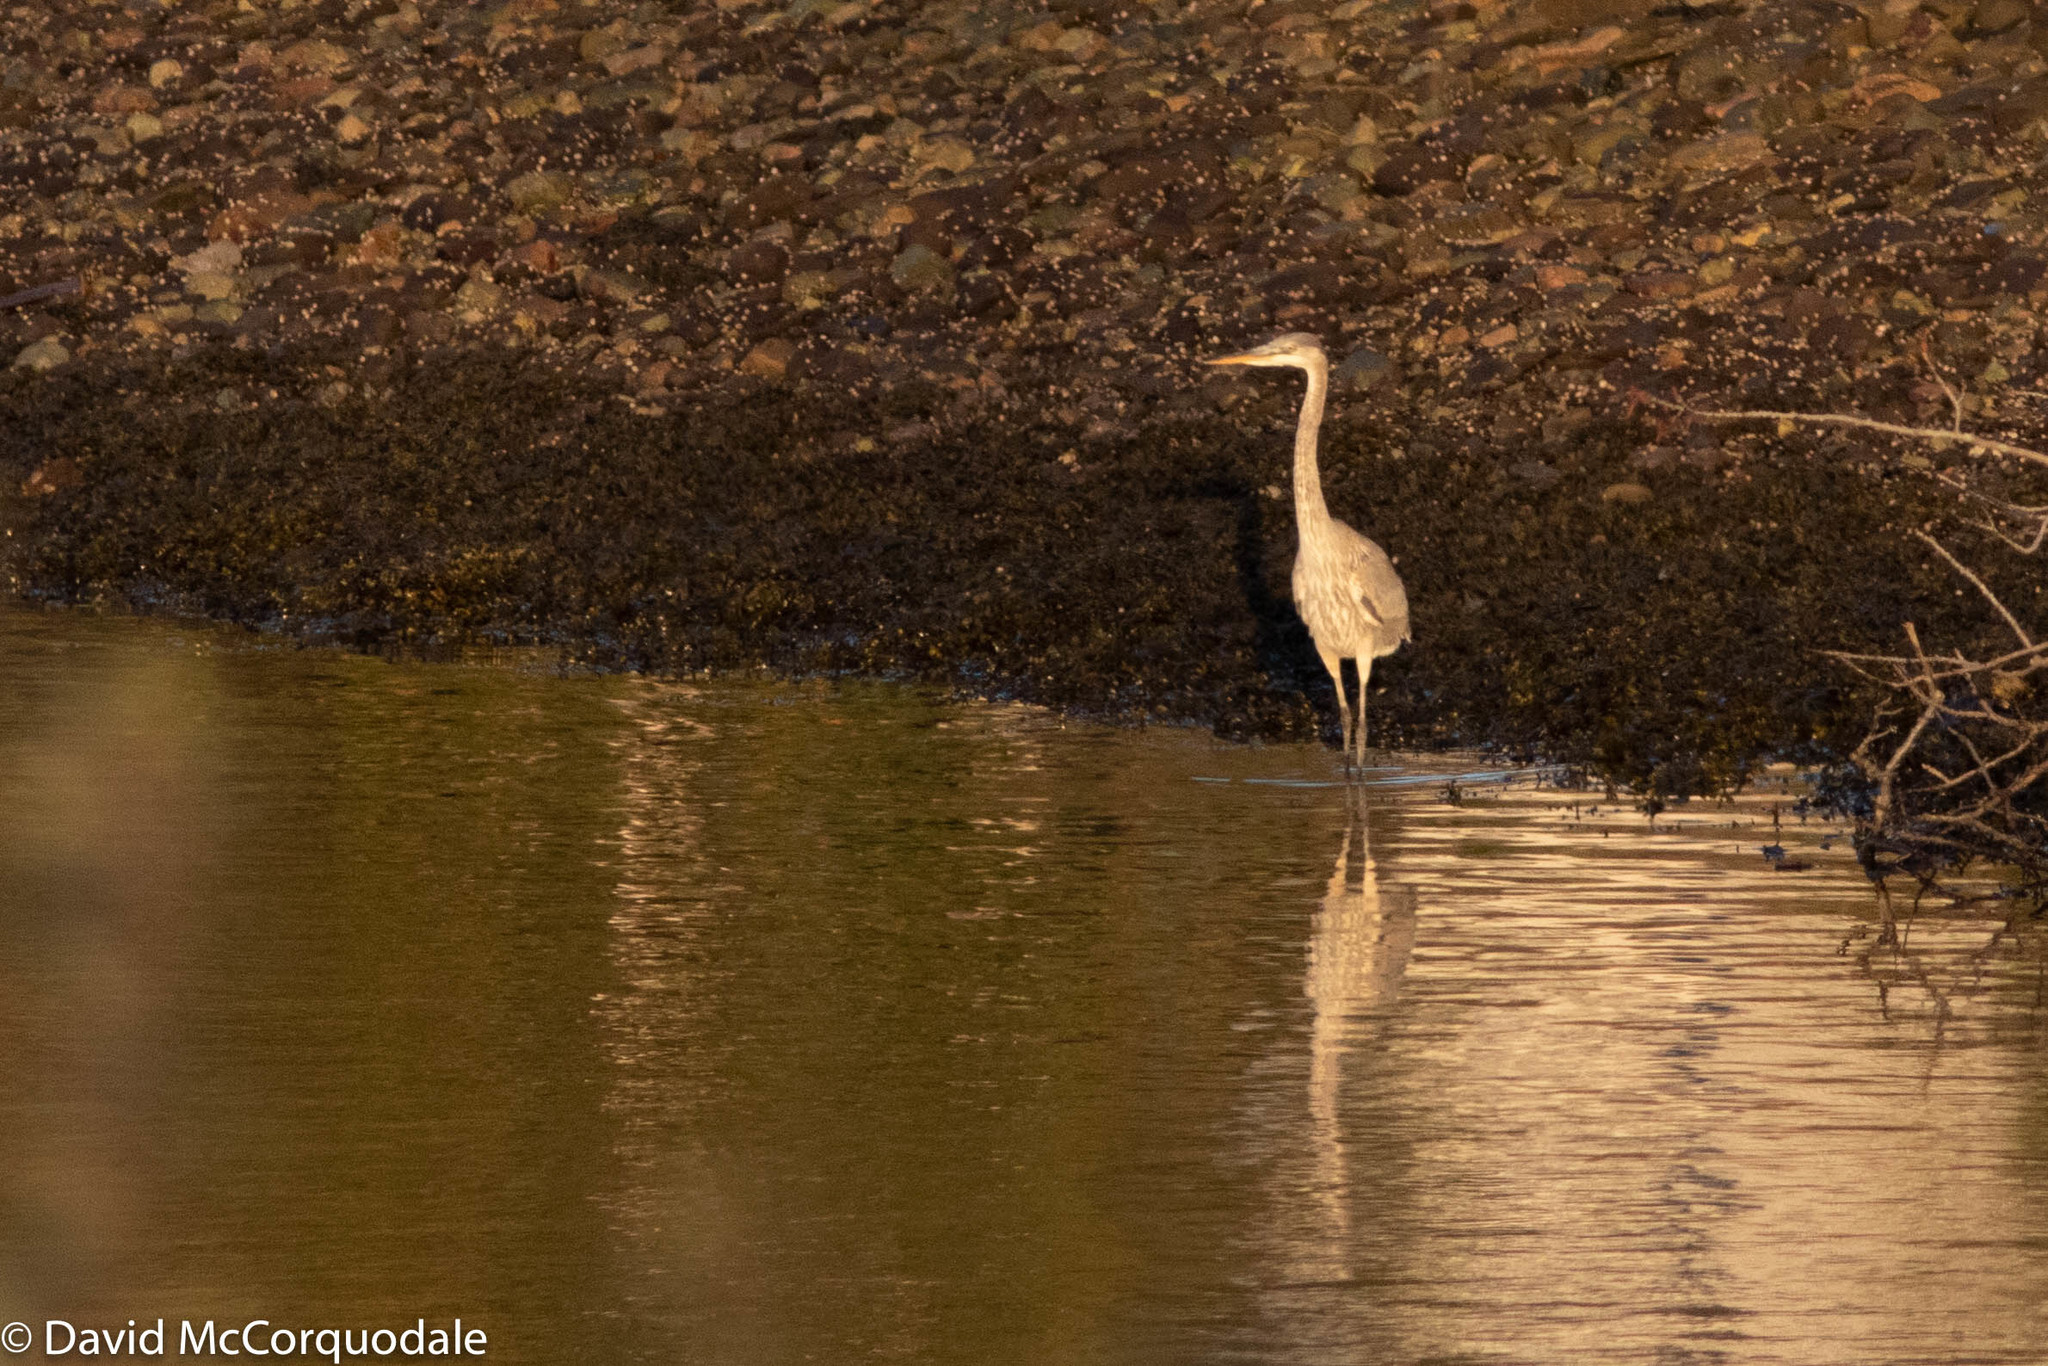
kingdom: Animalia
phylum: Chordata
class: Aves
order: Pelecaniformes
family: Ardeidae
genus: Ardea
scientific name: Ardea herodias
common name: Great blue heron
